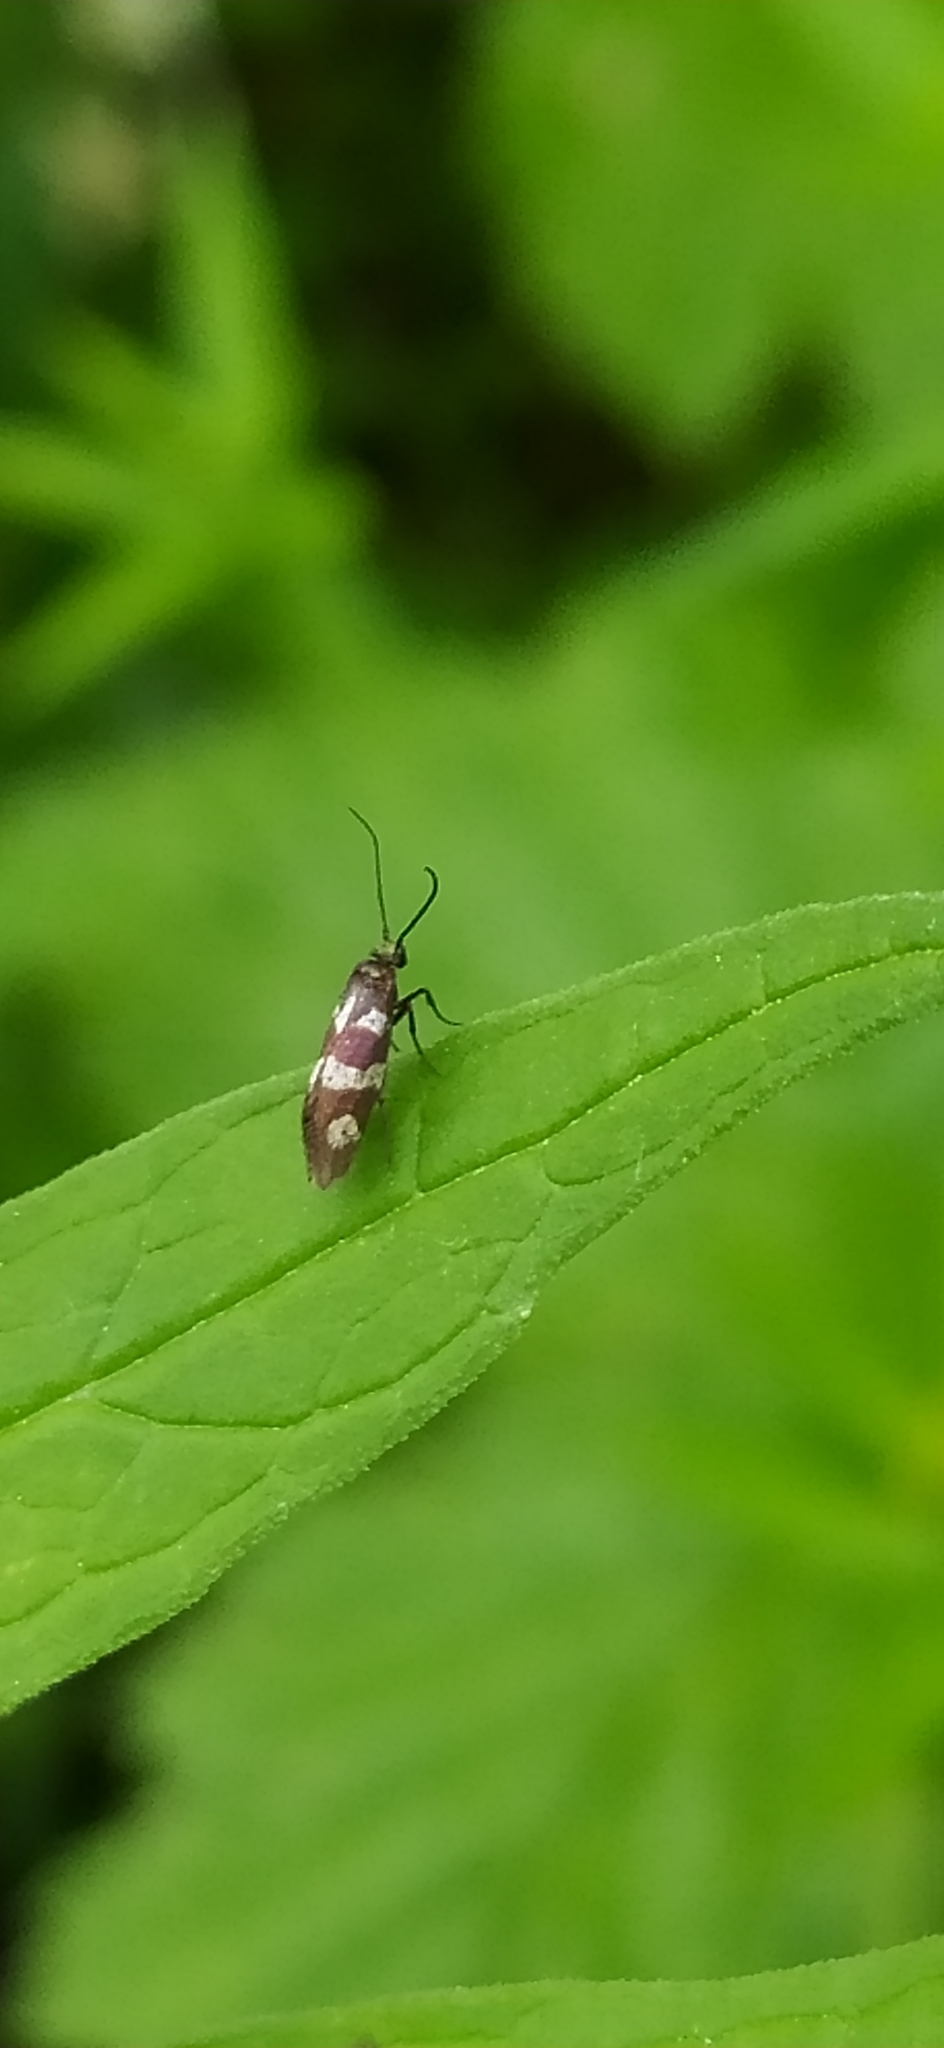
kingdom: Animalia
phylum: Arthropoda
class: Insecta
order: Lepidoptera
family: Micropterigidae
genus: Micropterix
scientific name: Micropterix aureatella
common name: Yellow-barred gold
